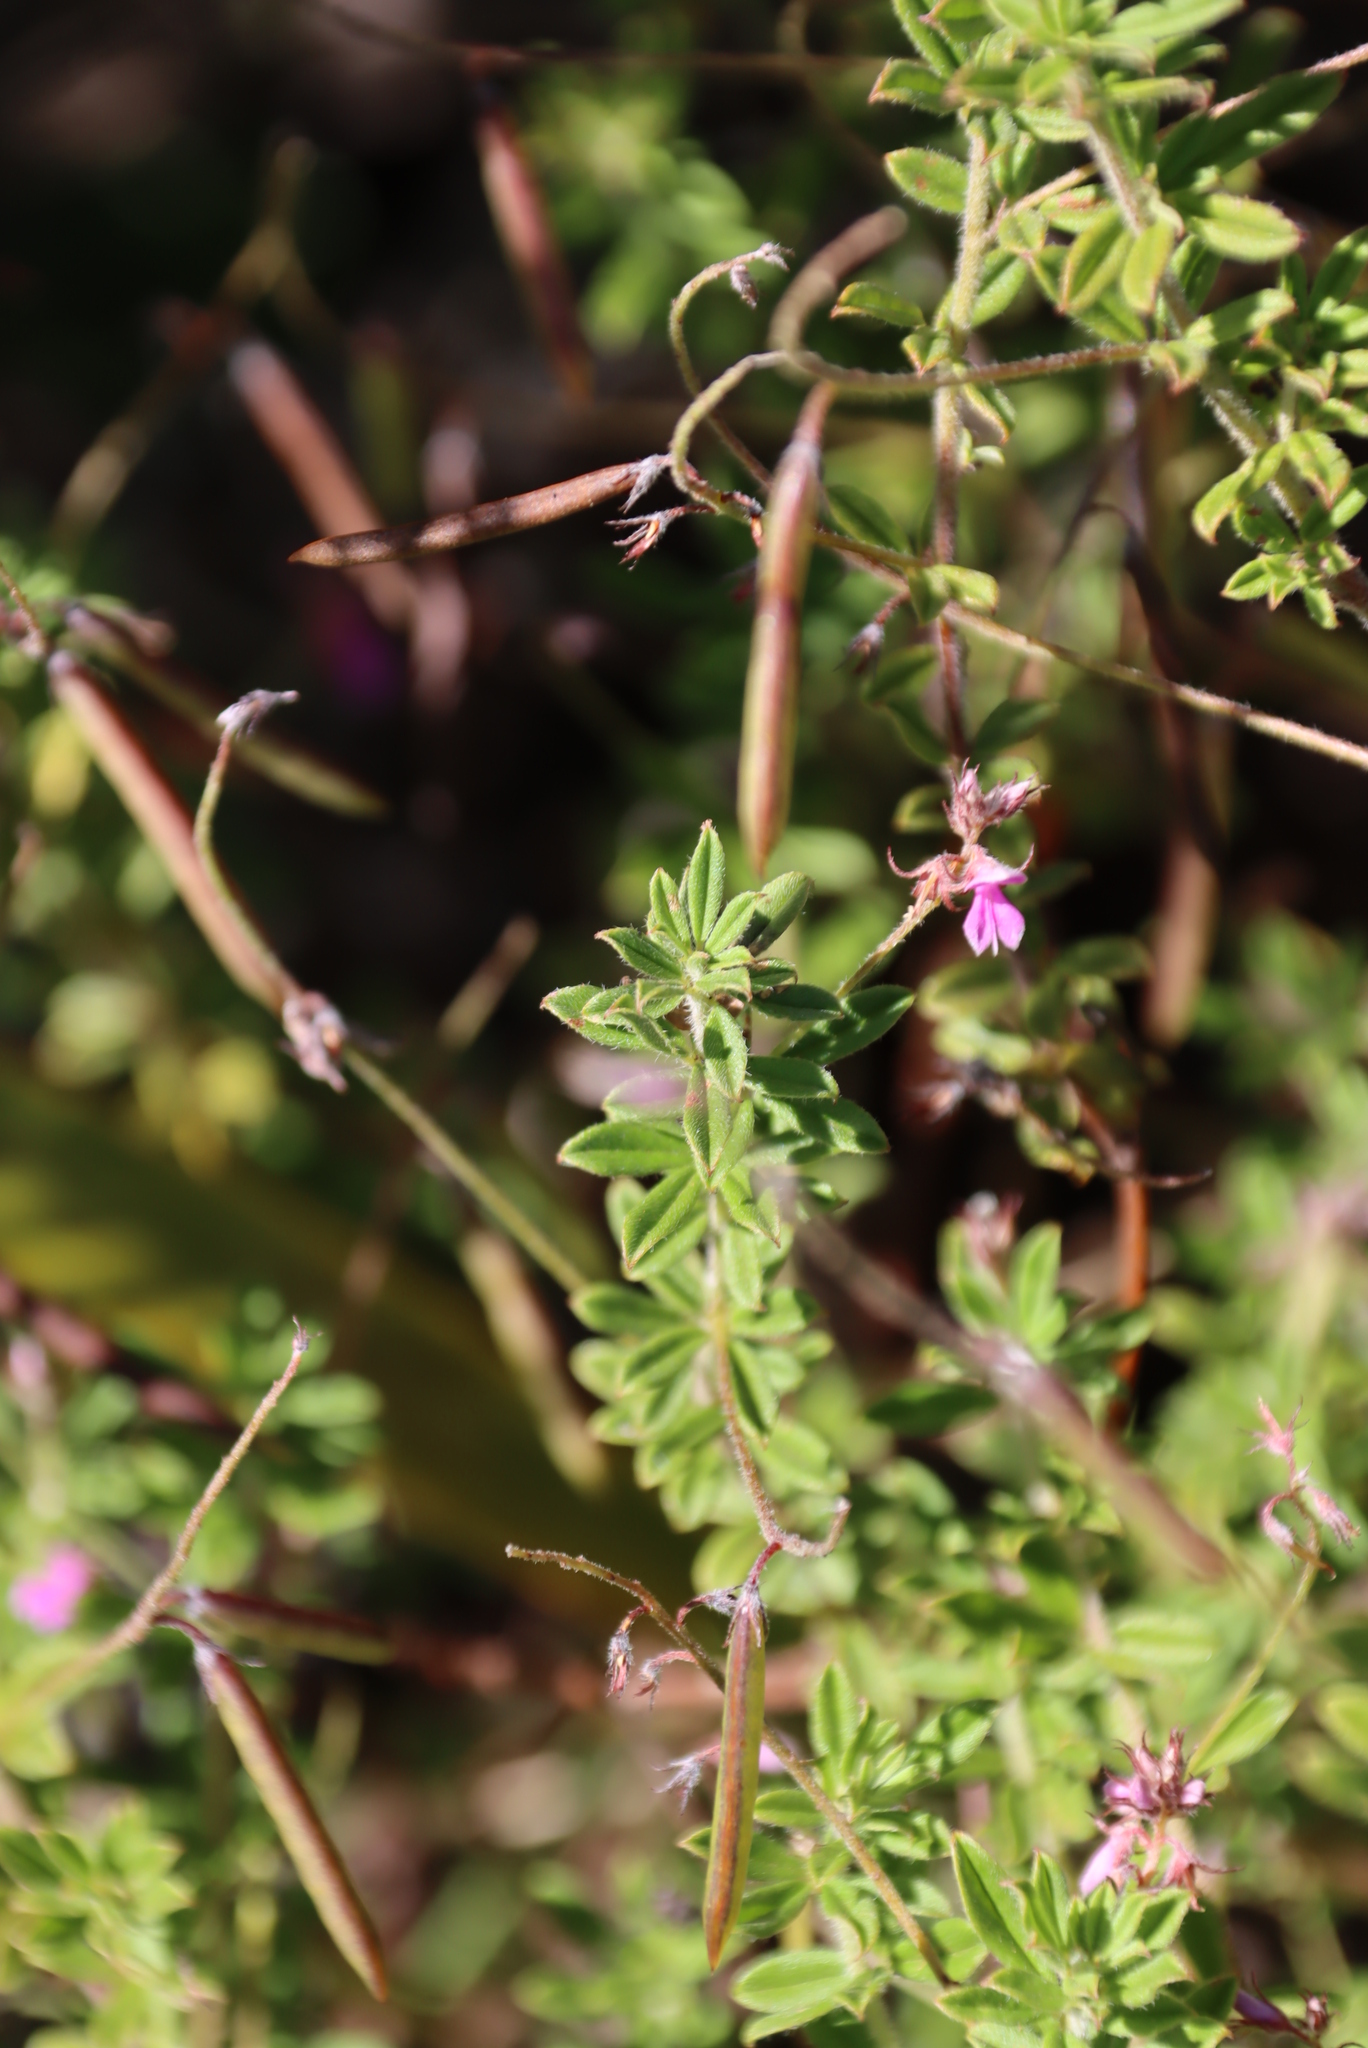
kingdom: Plantae
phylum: Tracheophyta
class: Magnoliopsida
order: Fabales
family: Fabaceae
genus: Indigofera
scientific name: Indigofera filiformis
